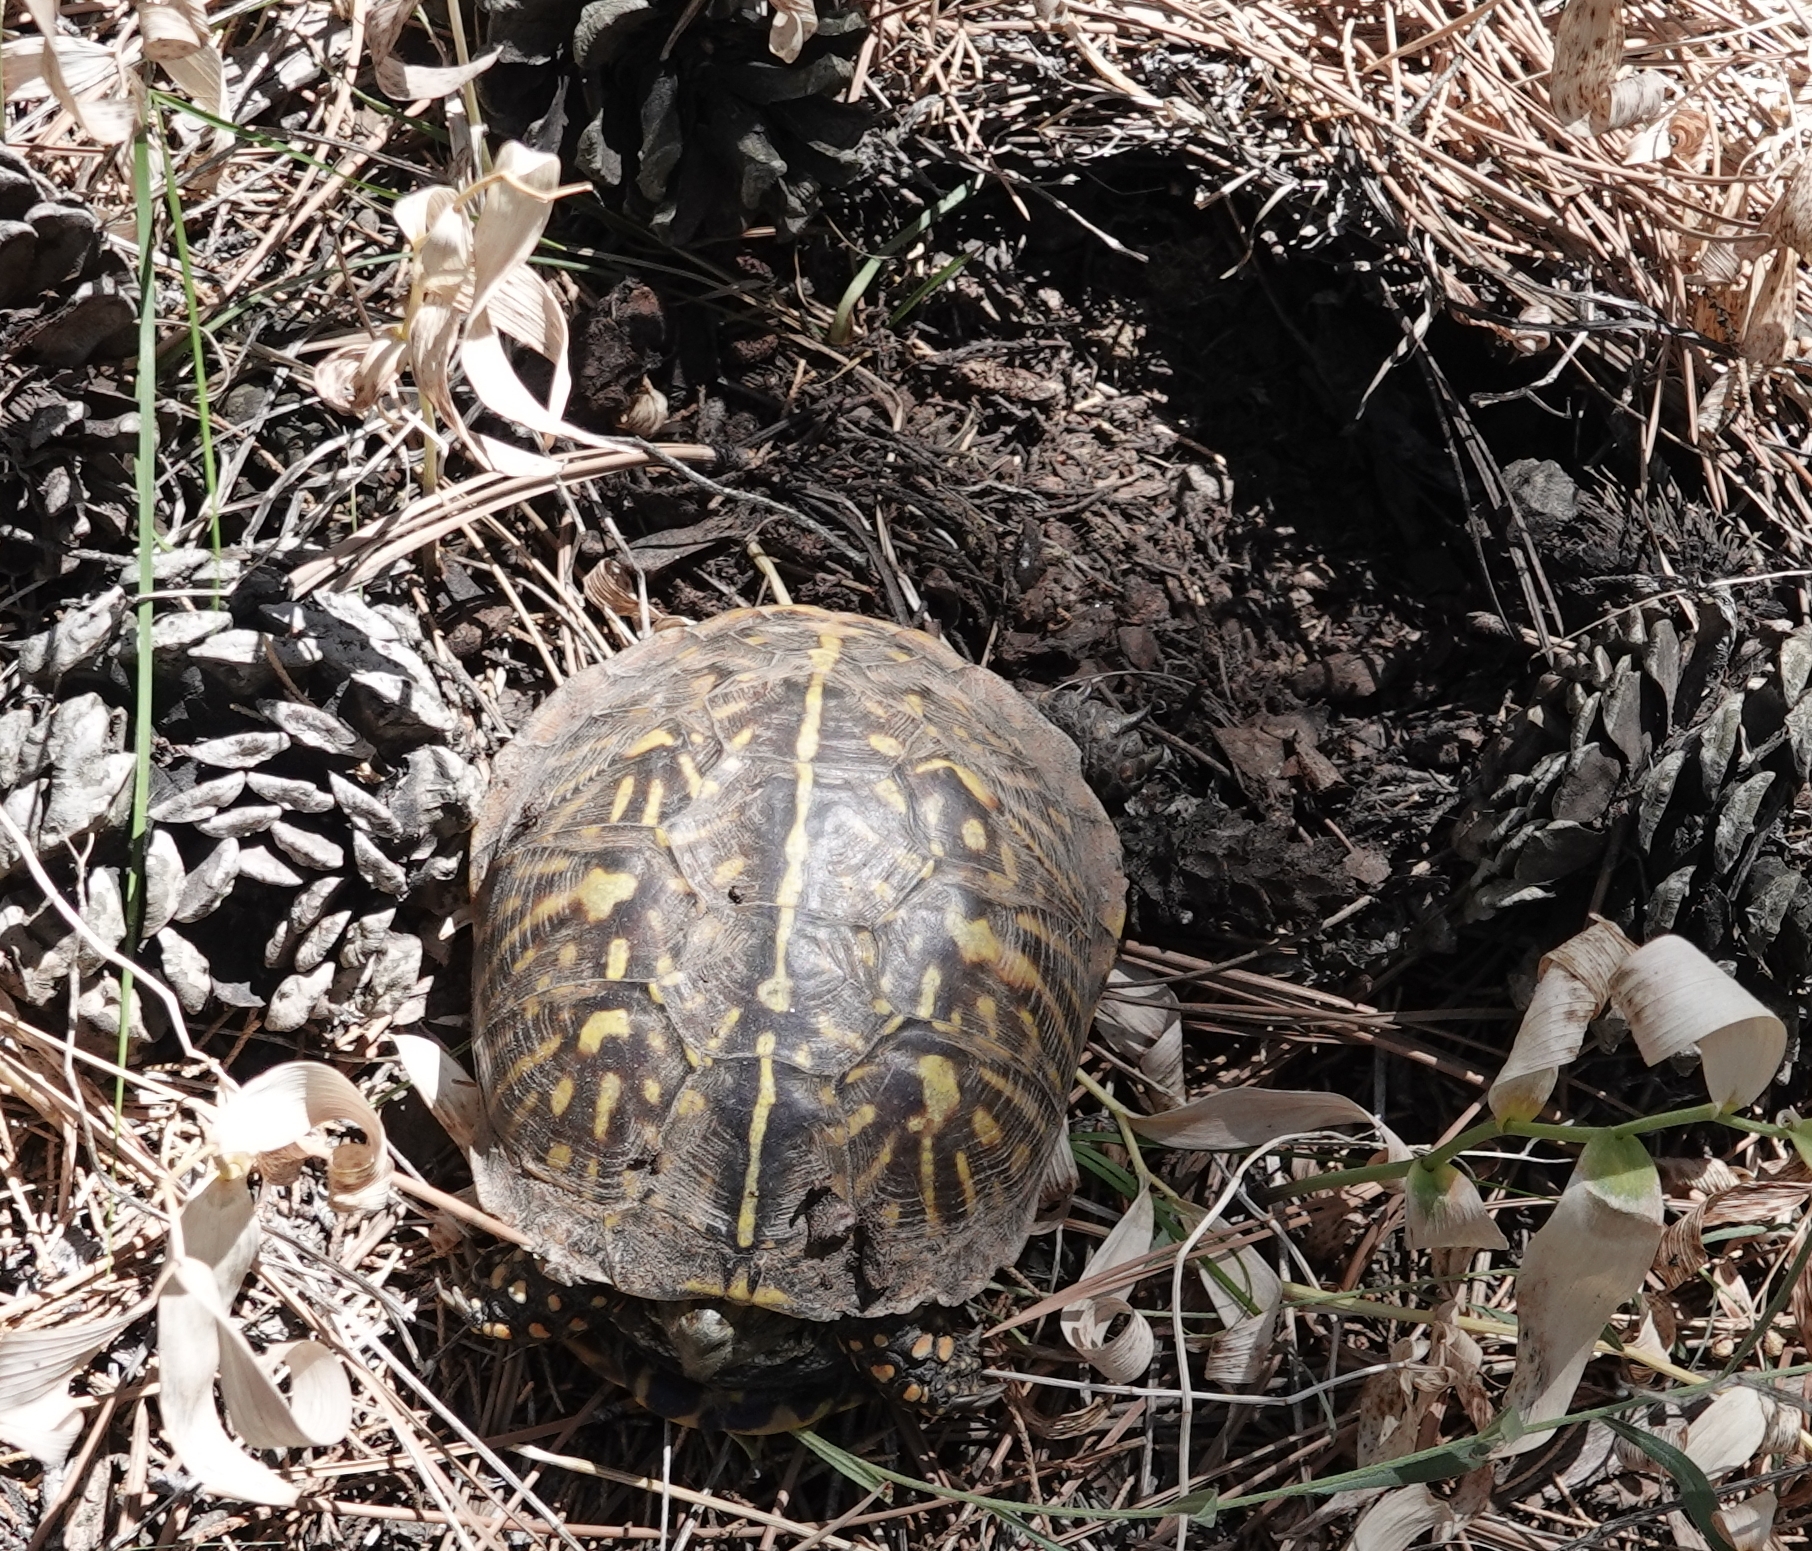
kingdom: Animalia
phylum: Chordata
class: Testudines
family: Emydidae
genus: Terrapene
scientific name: Terrapene ornata
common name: Western box turtle
